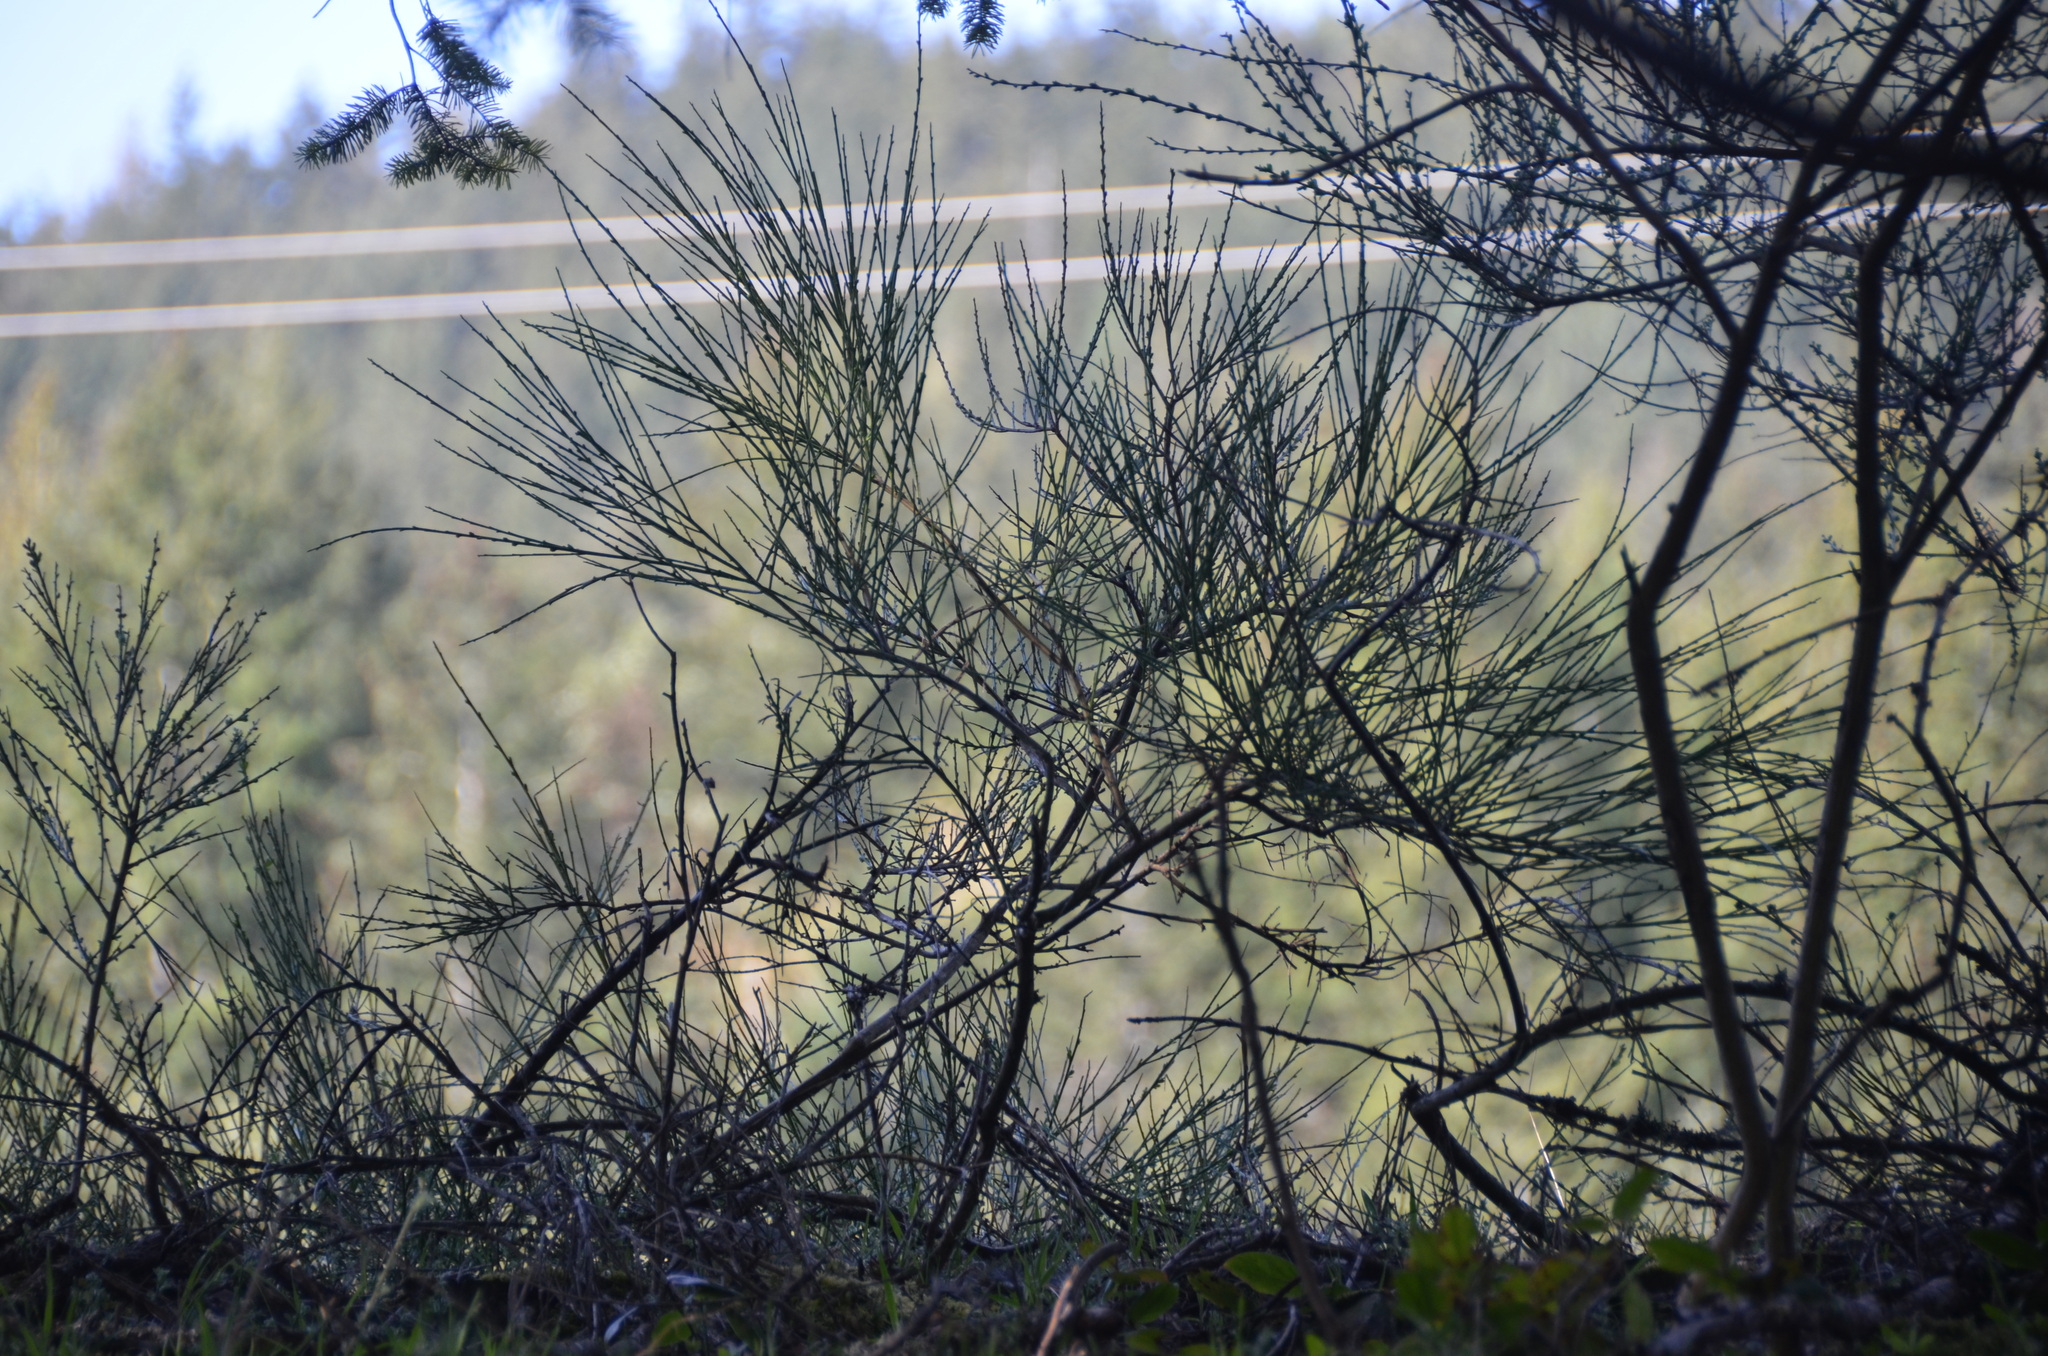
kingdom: Plantae
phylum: Tracheophyta
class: Magnoliopsida
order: Fabales
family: Fabaceae
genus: Cytisus
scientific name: Cytisus scoparius
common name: Scotch broom
